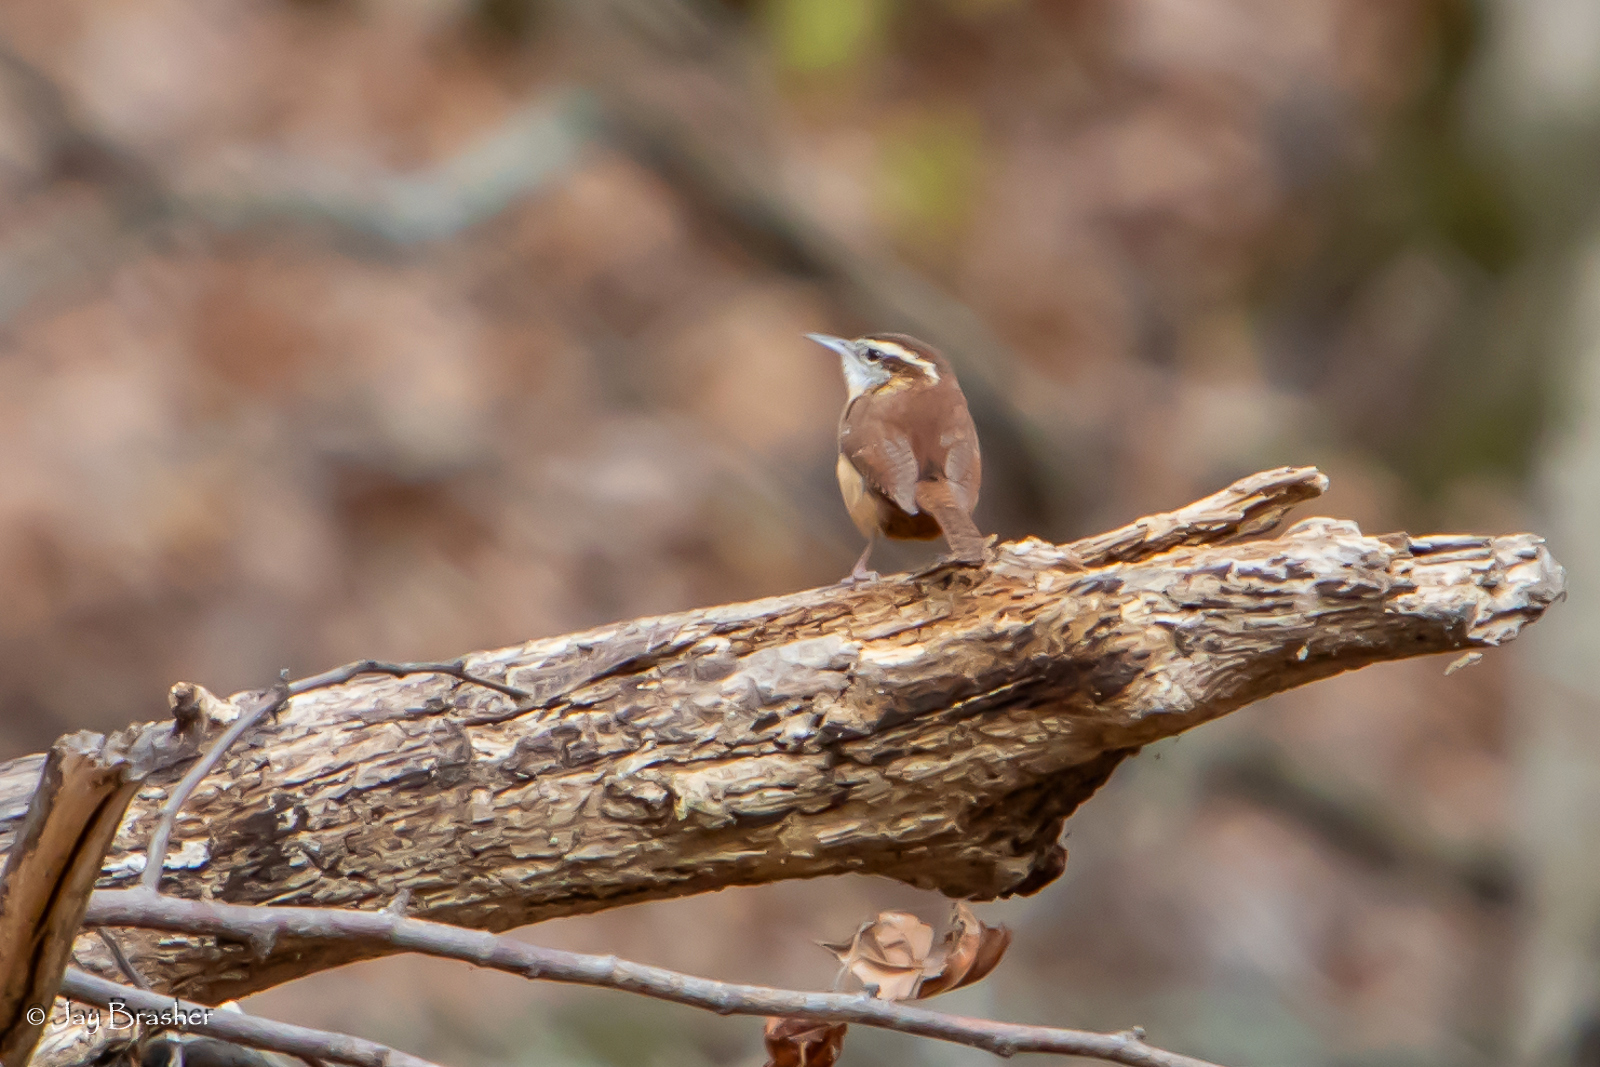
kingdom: Animalia
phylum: Chordata
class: Aves
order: Passeriformes
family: Troglodytidae
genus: Thryothorus
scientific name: Thryothorus ludovicianus
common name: Carolina wren
